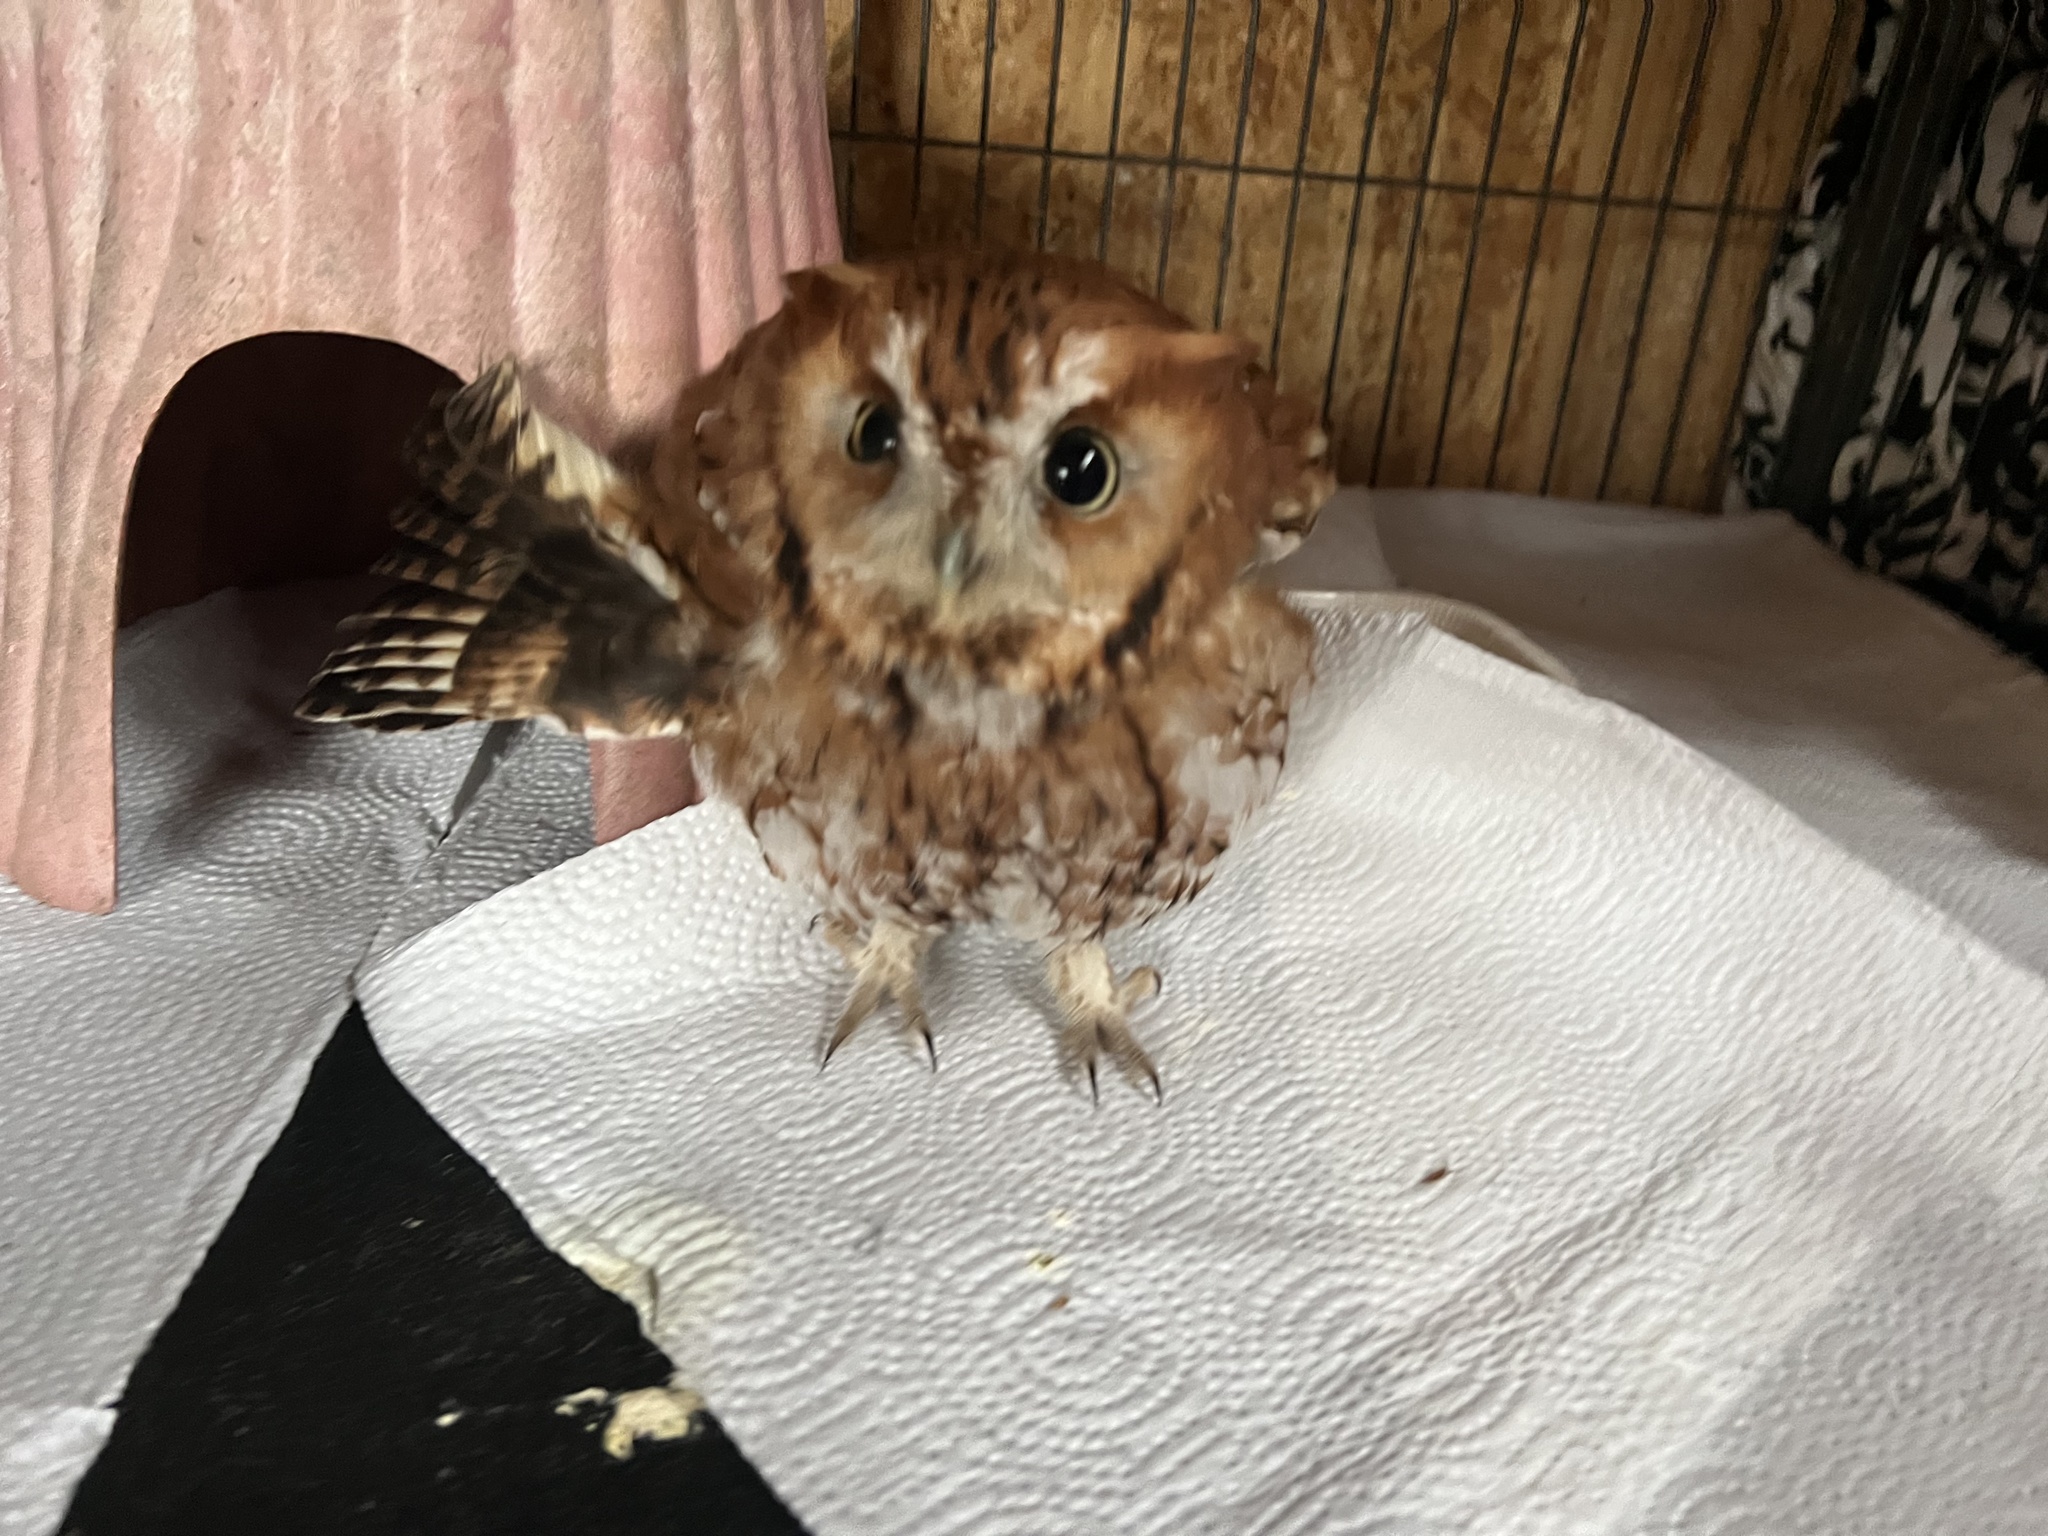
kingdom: Animalia
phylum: Chordata
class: Aves
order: Strigiformes
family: Strigidae
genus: Megascops
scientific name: Megascops asio
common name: Eastern screech-owl
